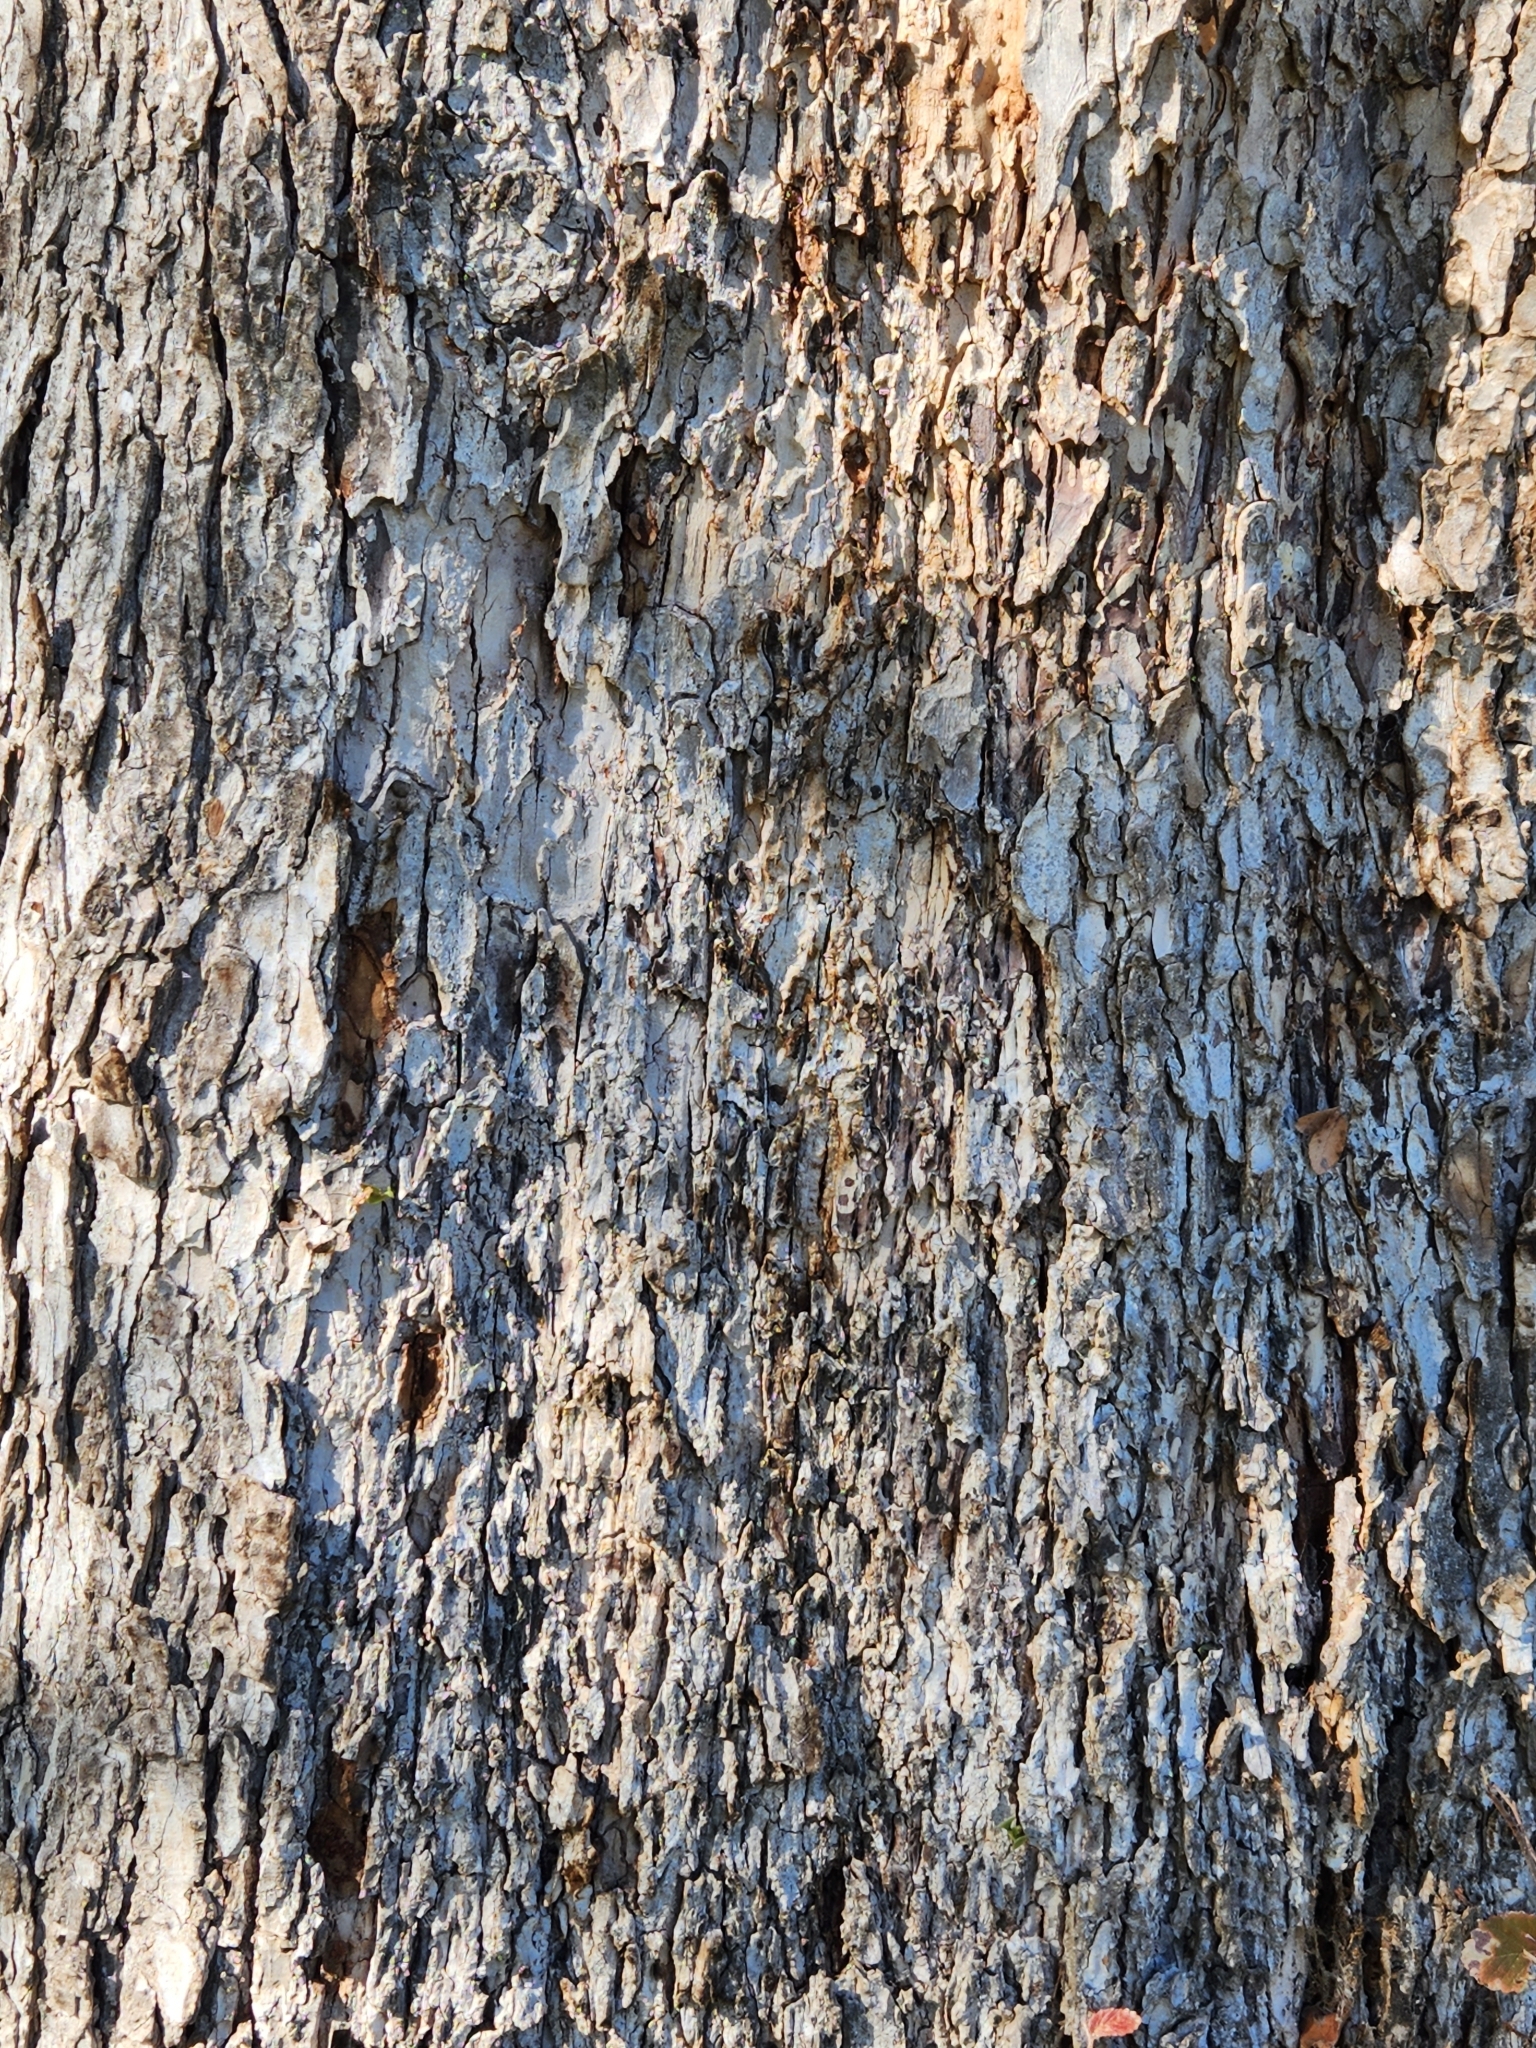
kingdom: Plantae
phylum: Tracheophyta
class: Magnoliopsida
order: Rosales
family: Ulmaceae
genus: Ulmus
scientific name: Ulmus crassifolia
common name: Basket elm
